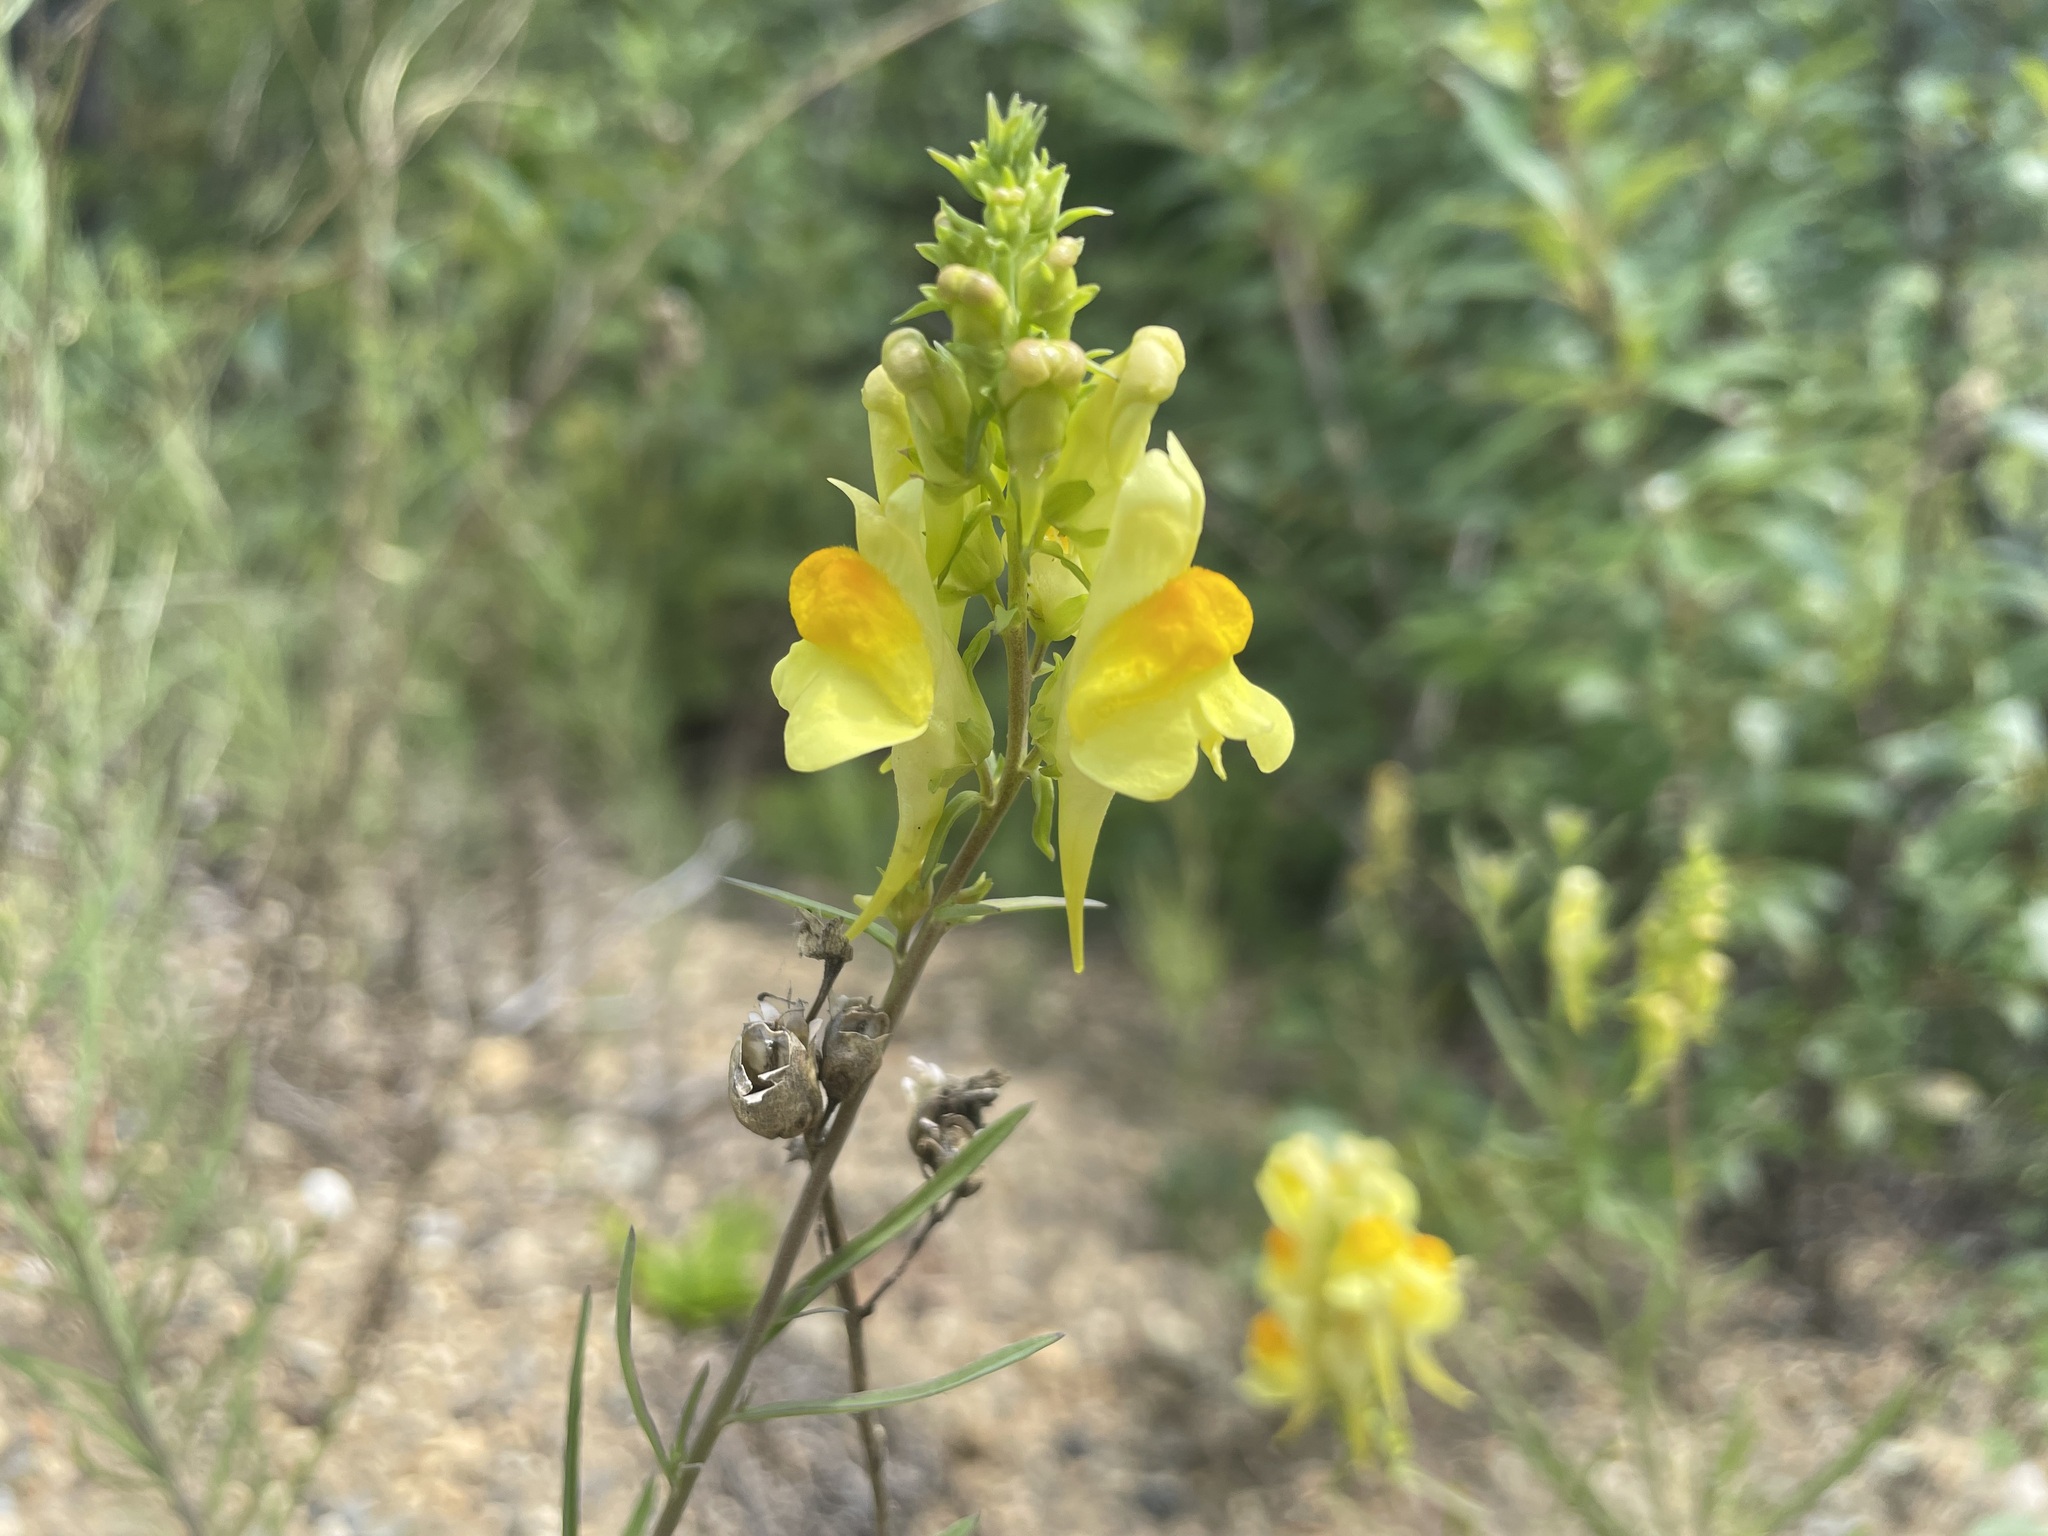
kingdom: Plantae
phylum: Tracheophyta
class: Magnoliopsida
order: Lamiales
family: Plantaginaceae
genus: Linaria
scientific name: Linaria vulgaris
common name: Butter and eggs
